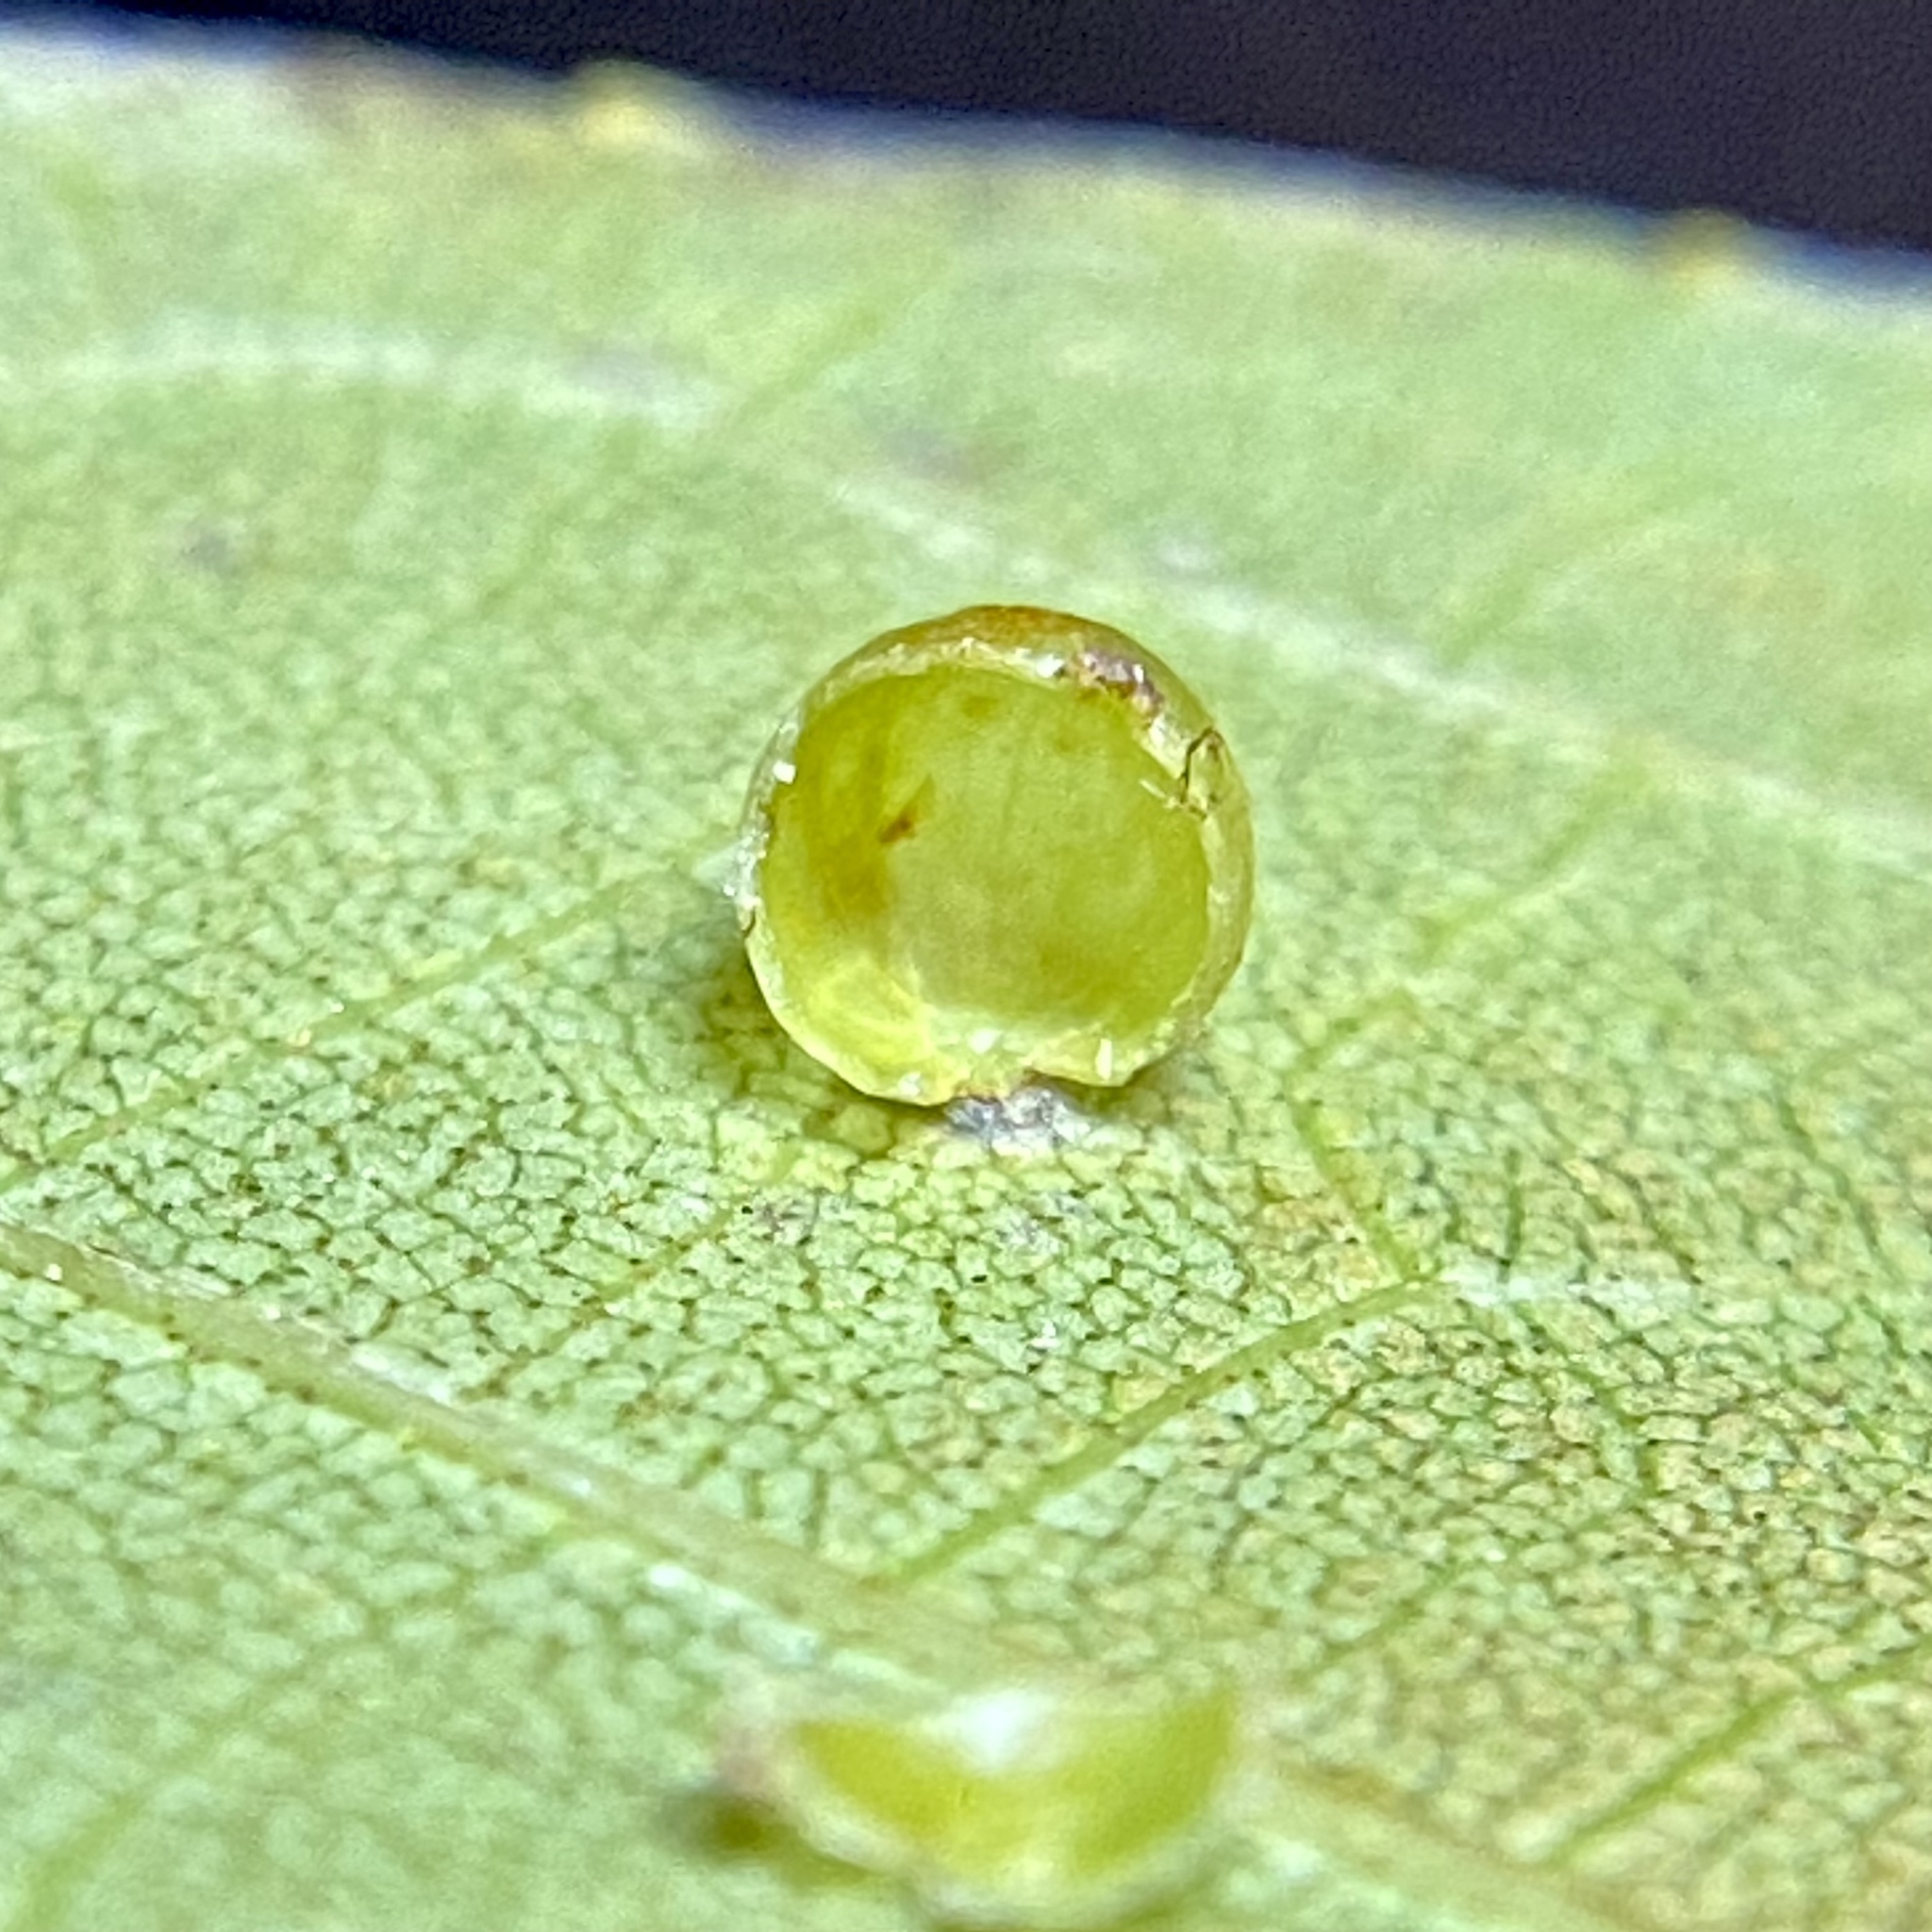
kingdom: Animalia
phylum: Arthropoda
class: Insecta
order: Diptera
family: Cecidomyiidae
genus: Caryomyia
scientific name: Caryomyia leviglobus
